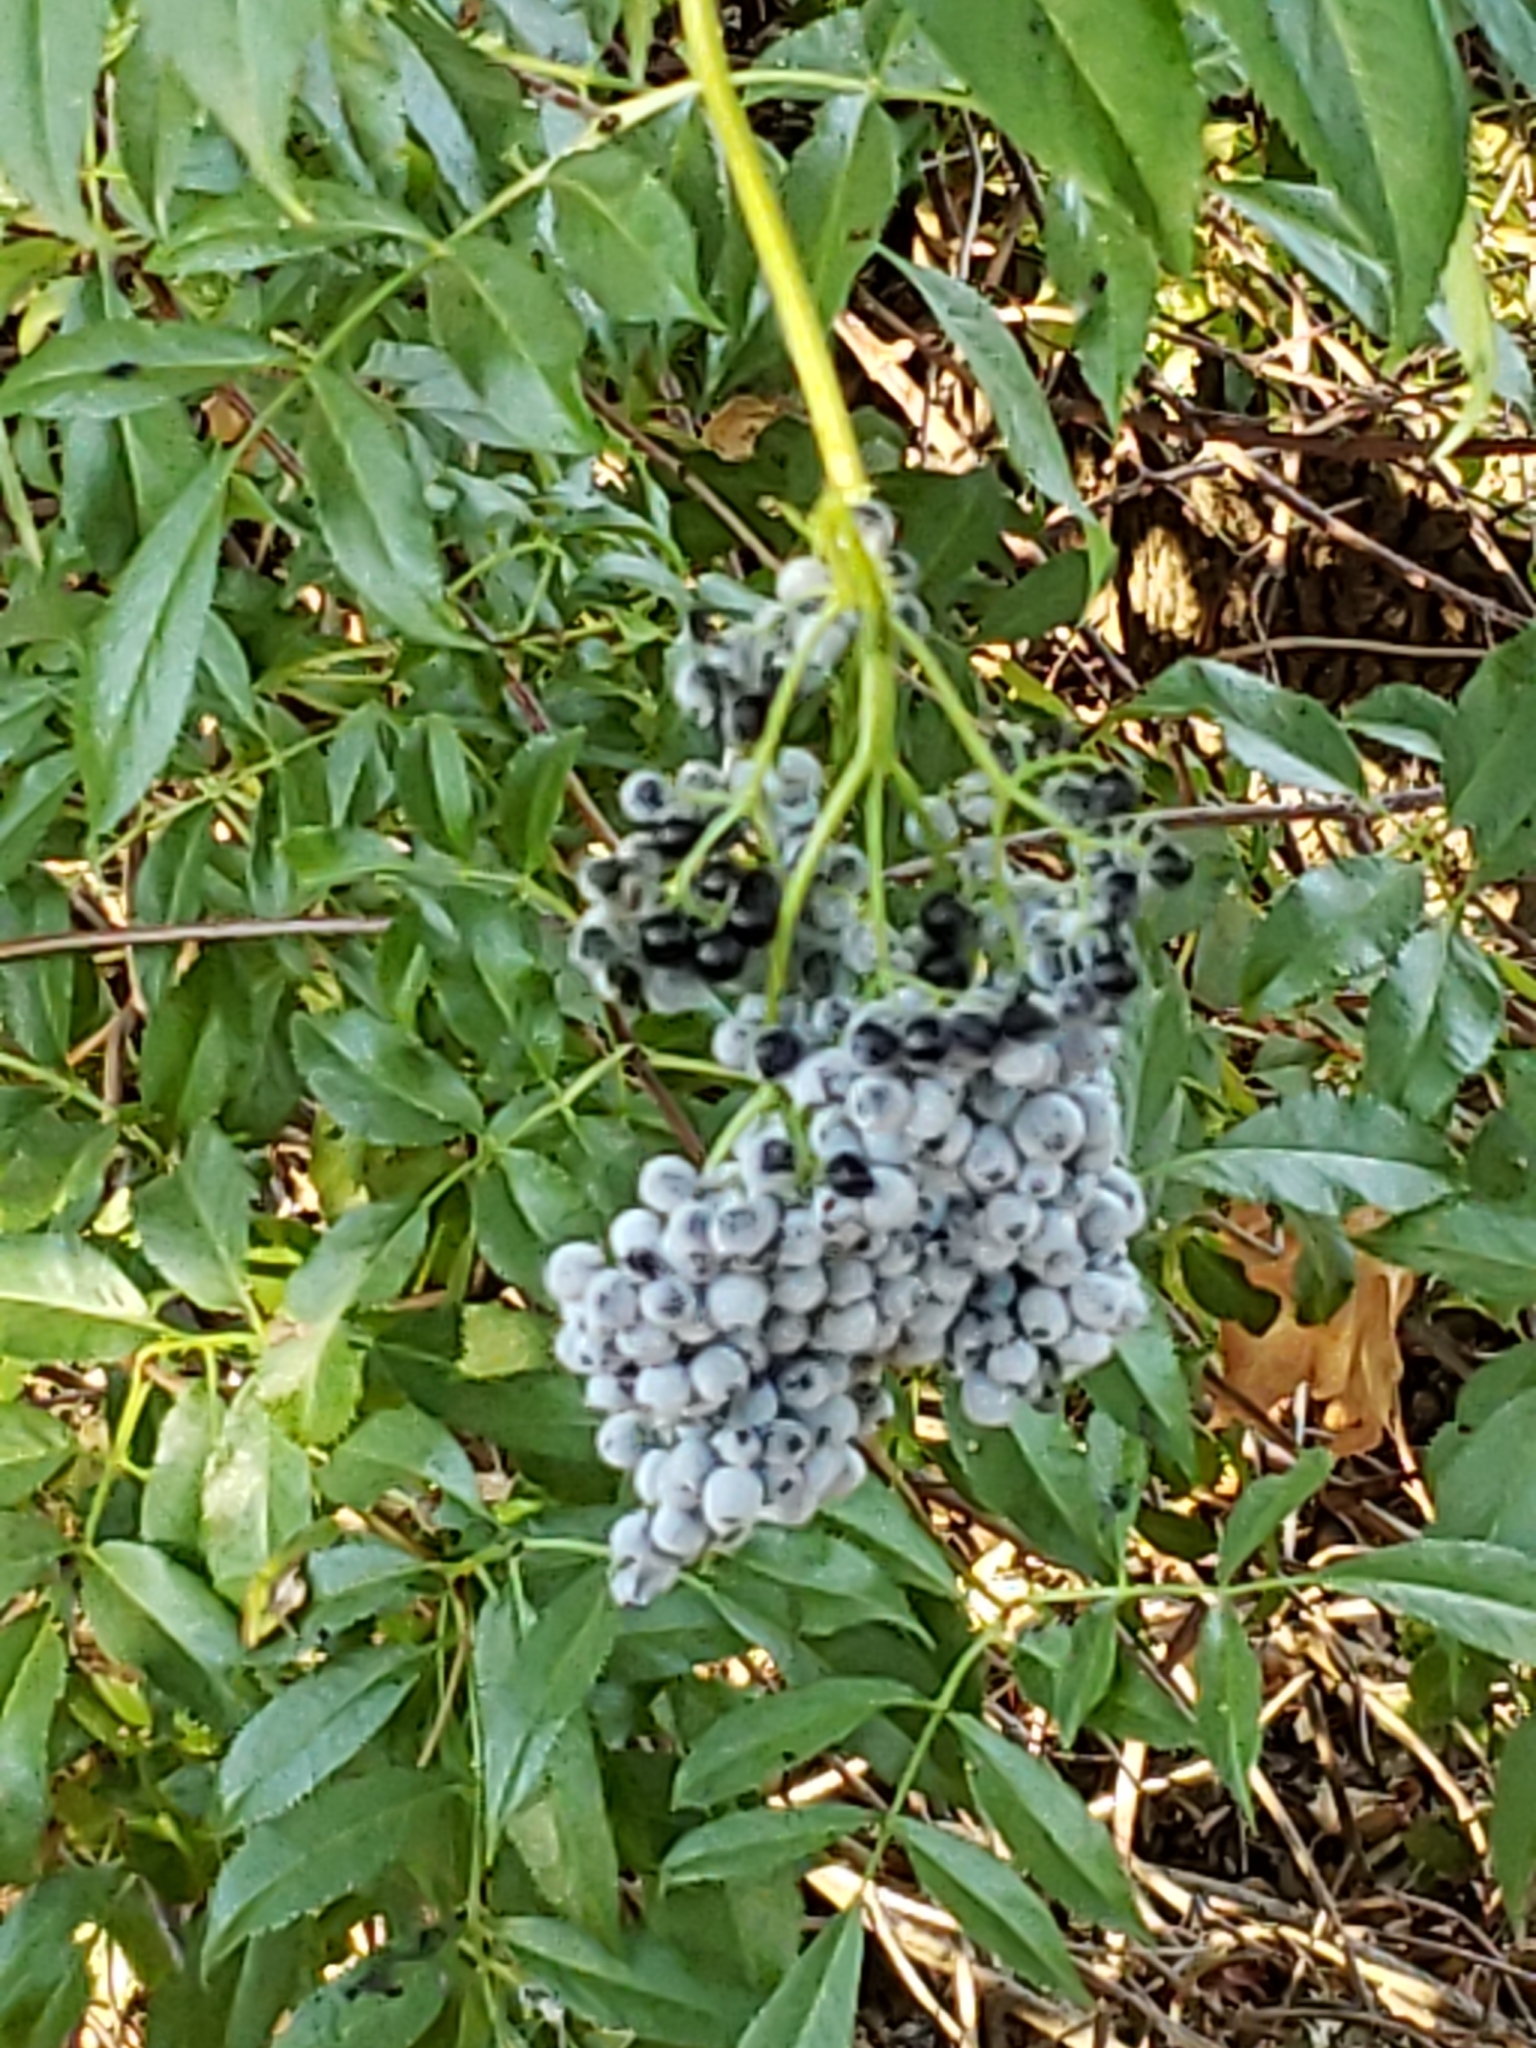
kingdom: Plantae
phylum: Tracheophyta
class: Magnoliopsida
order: Dipsacales
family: Viburnaceae
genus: Sambucus
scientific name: Sambucus cerulea
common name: Blue elder
